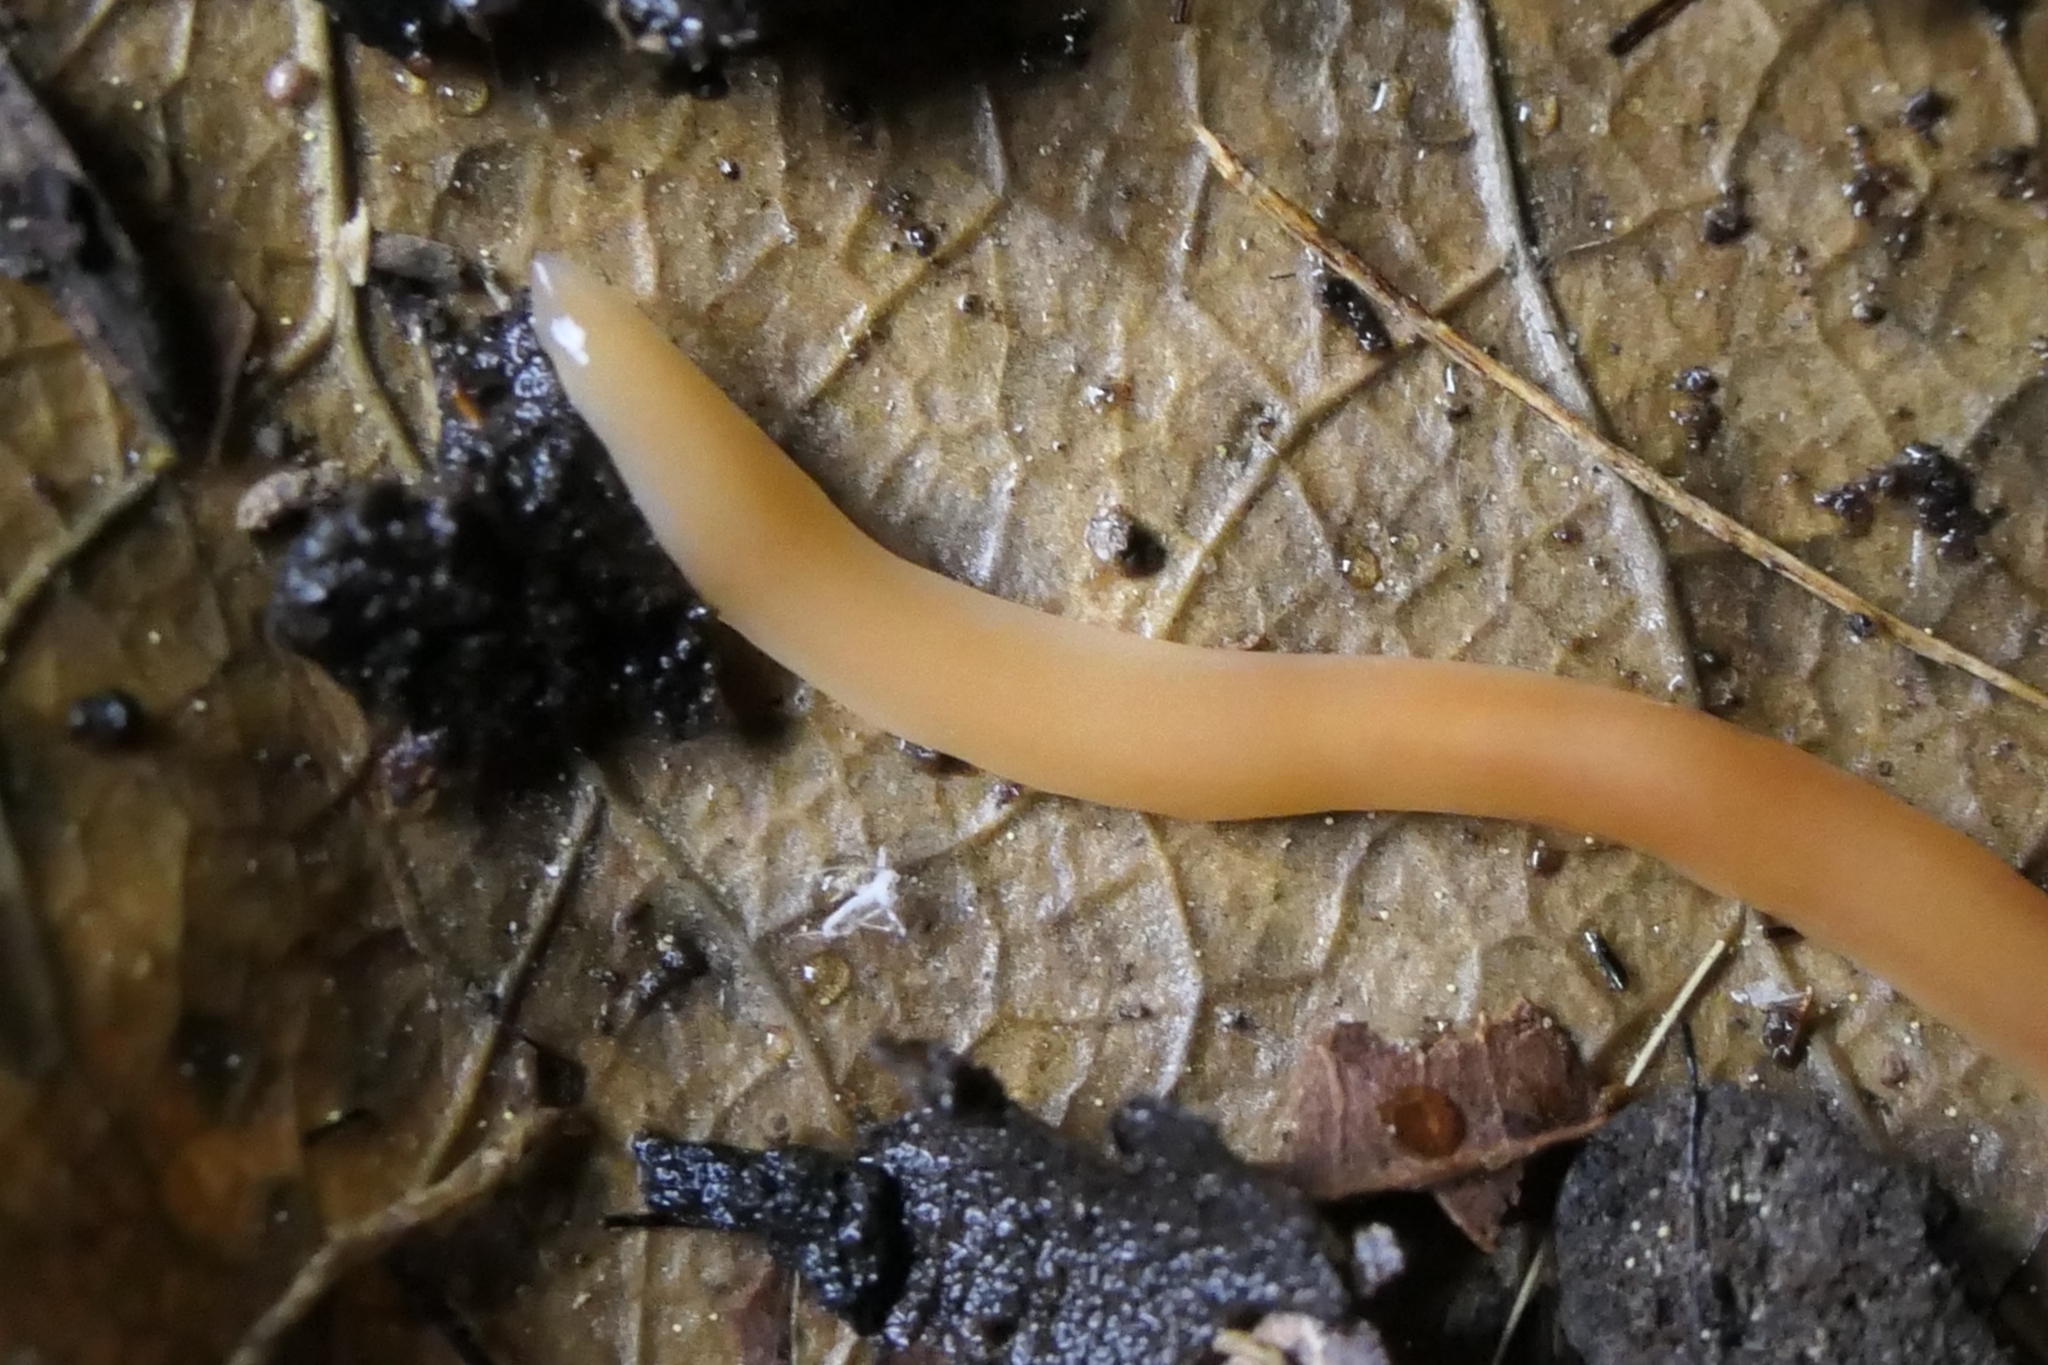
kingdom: Animalia
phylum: Platyhelminthes
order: Tricladida
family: Geoplanidae
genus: Australoplana
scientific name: Australoplana sanguinea
